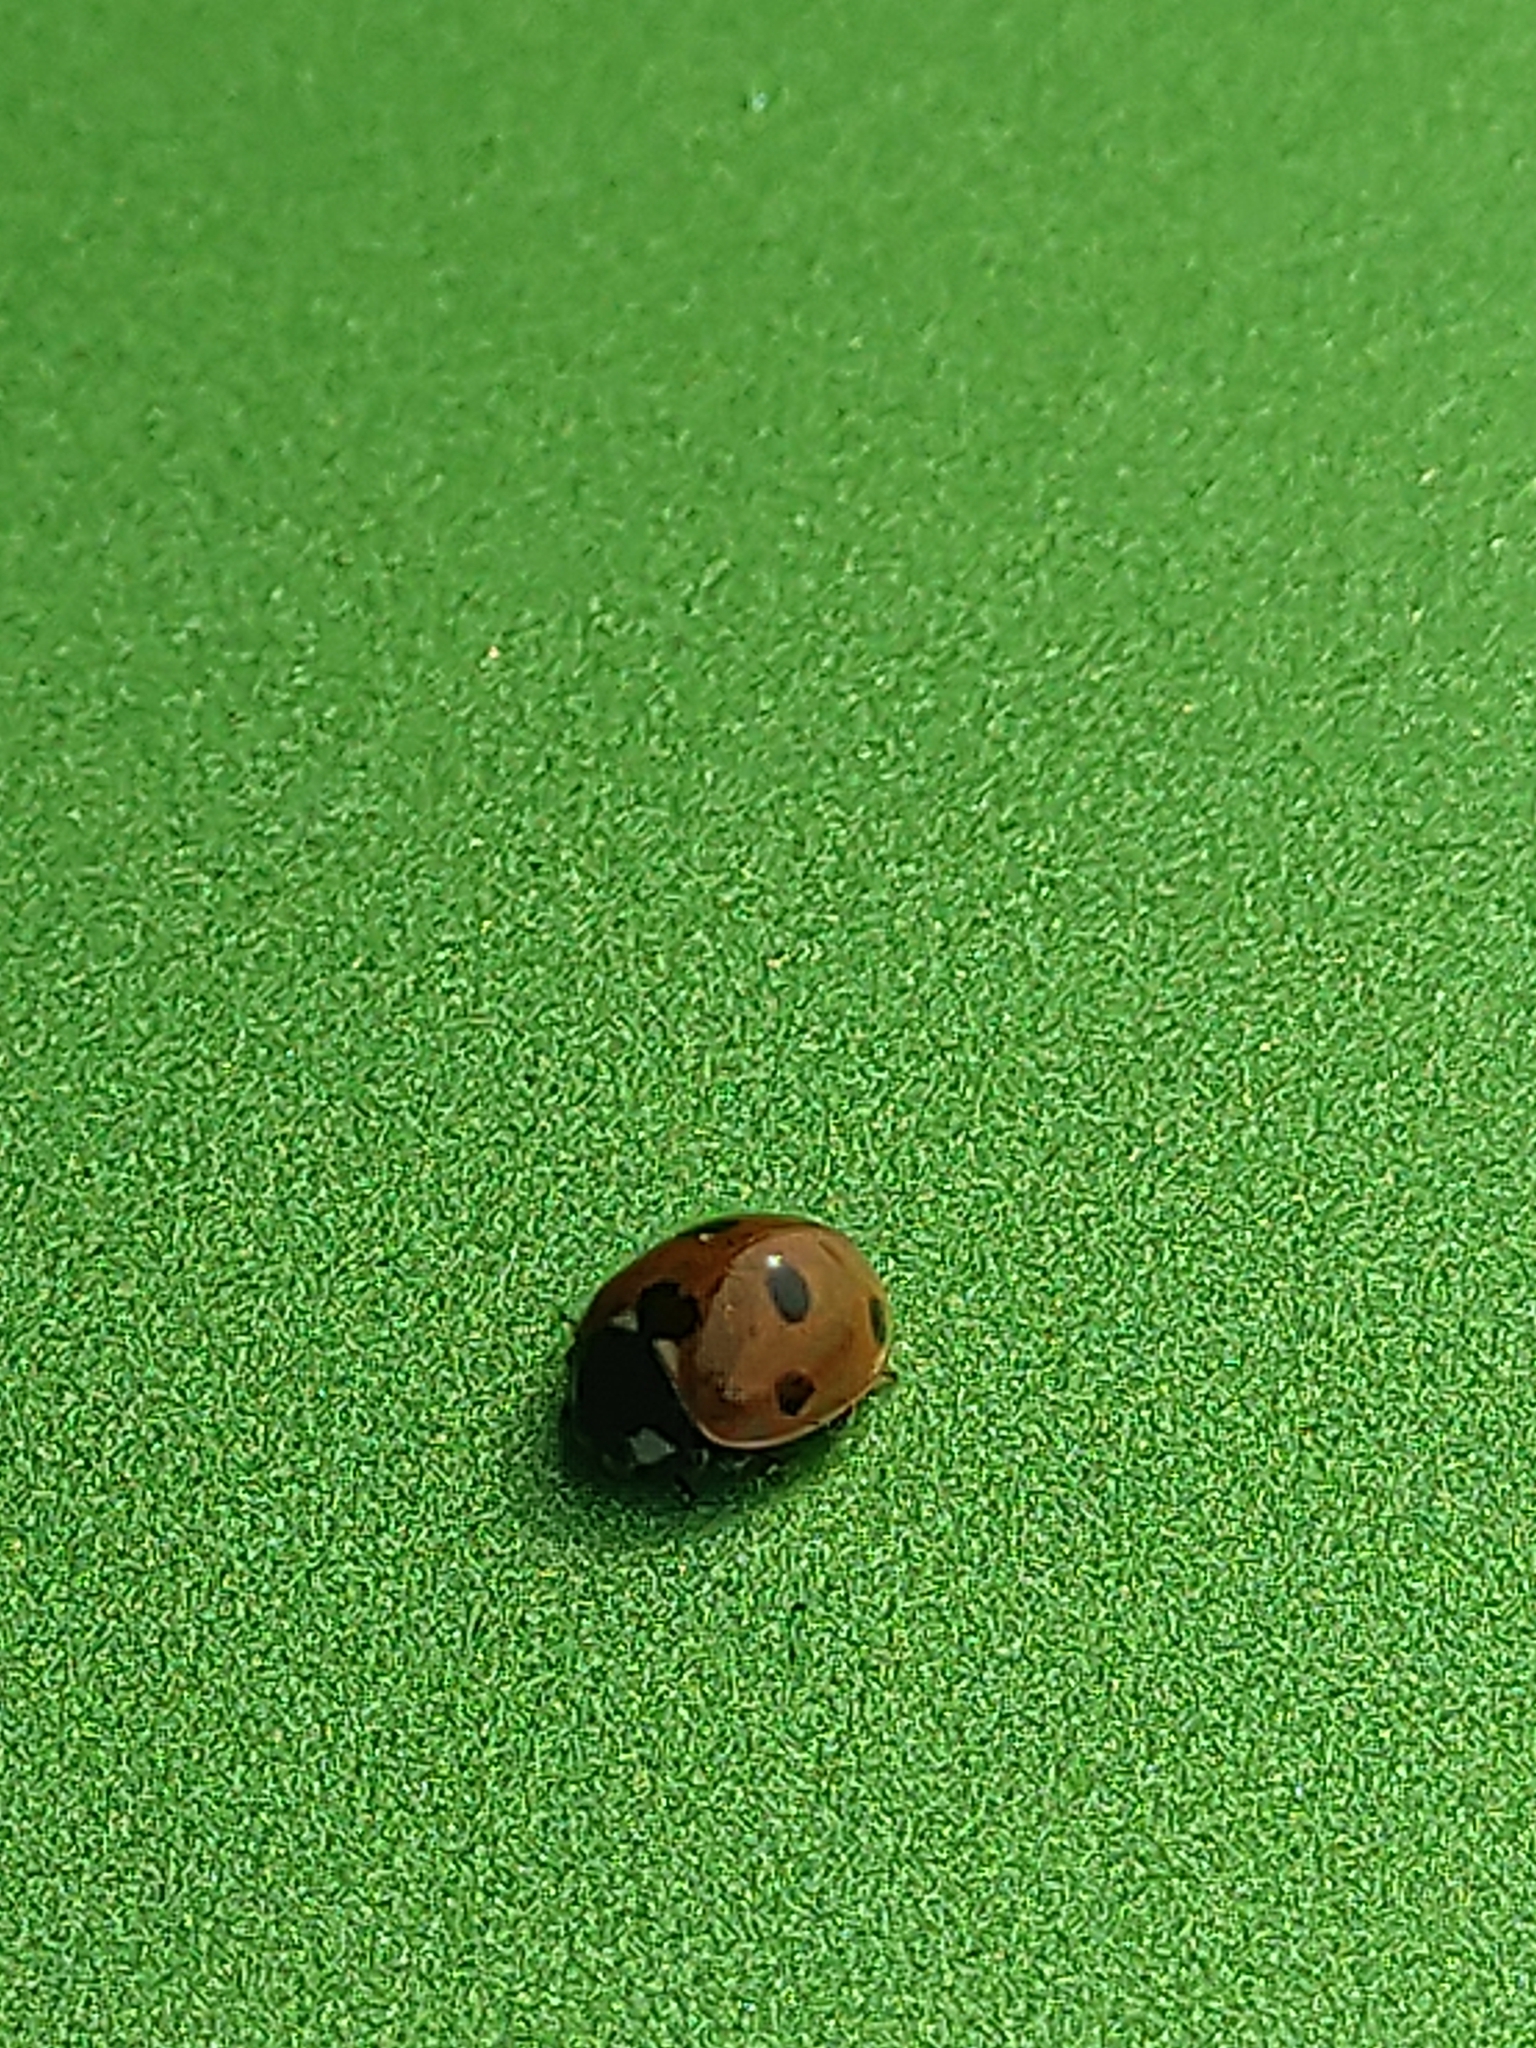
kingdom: Animalia
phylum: Arthropoda
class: Insecta
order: Coleoptera
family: Coccinellidae
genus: Coccinella
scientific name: Coccinella septempunctata
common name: Sevenspotted lady beetle
